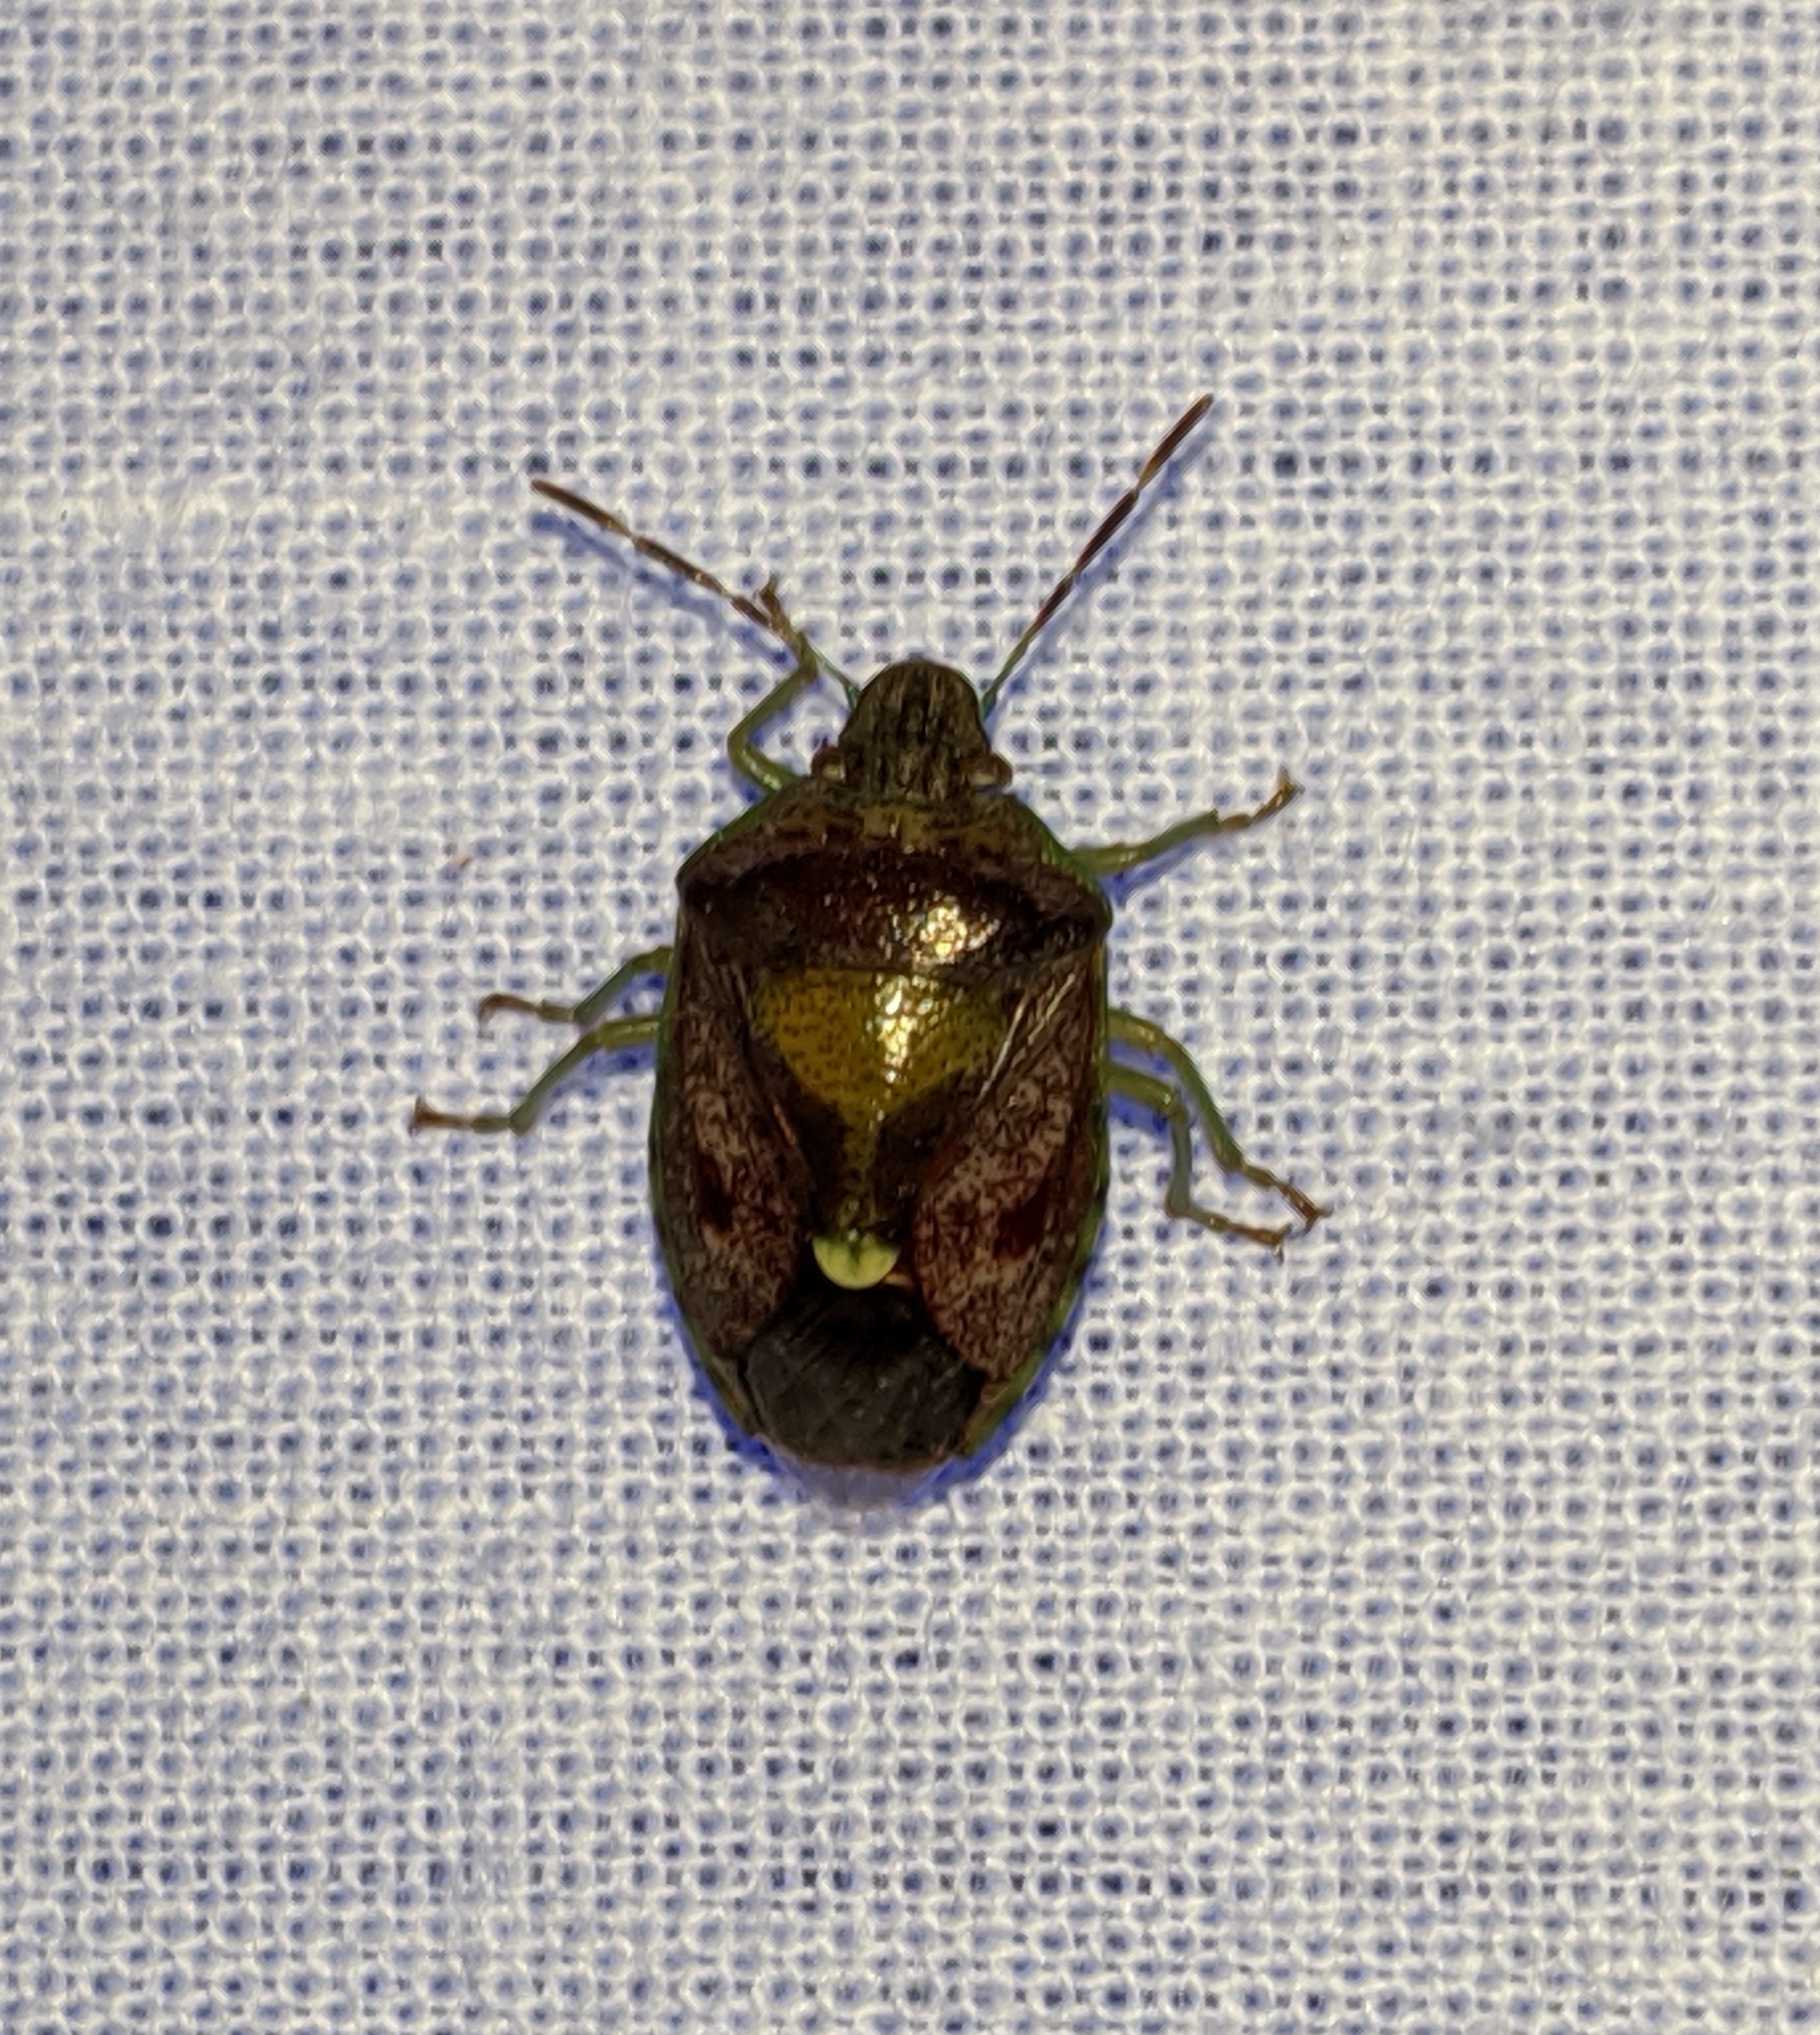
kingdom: Animalia
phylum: Arthropoda
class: Insecta
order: Hemiptera
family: Pentatomidae
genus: Banasa
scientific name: Banasa sordida
